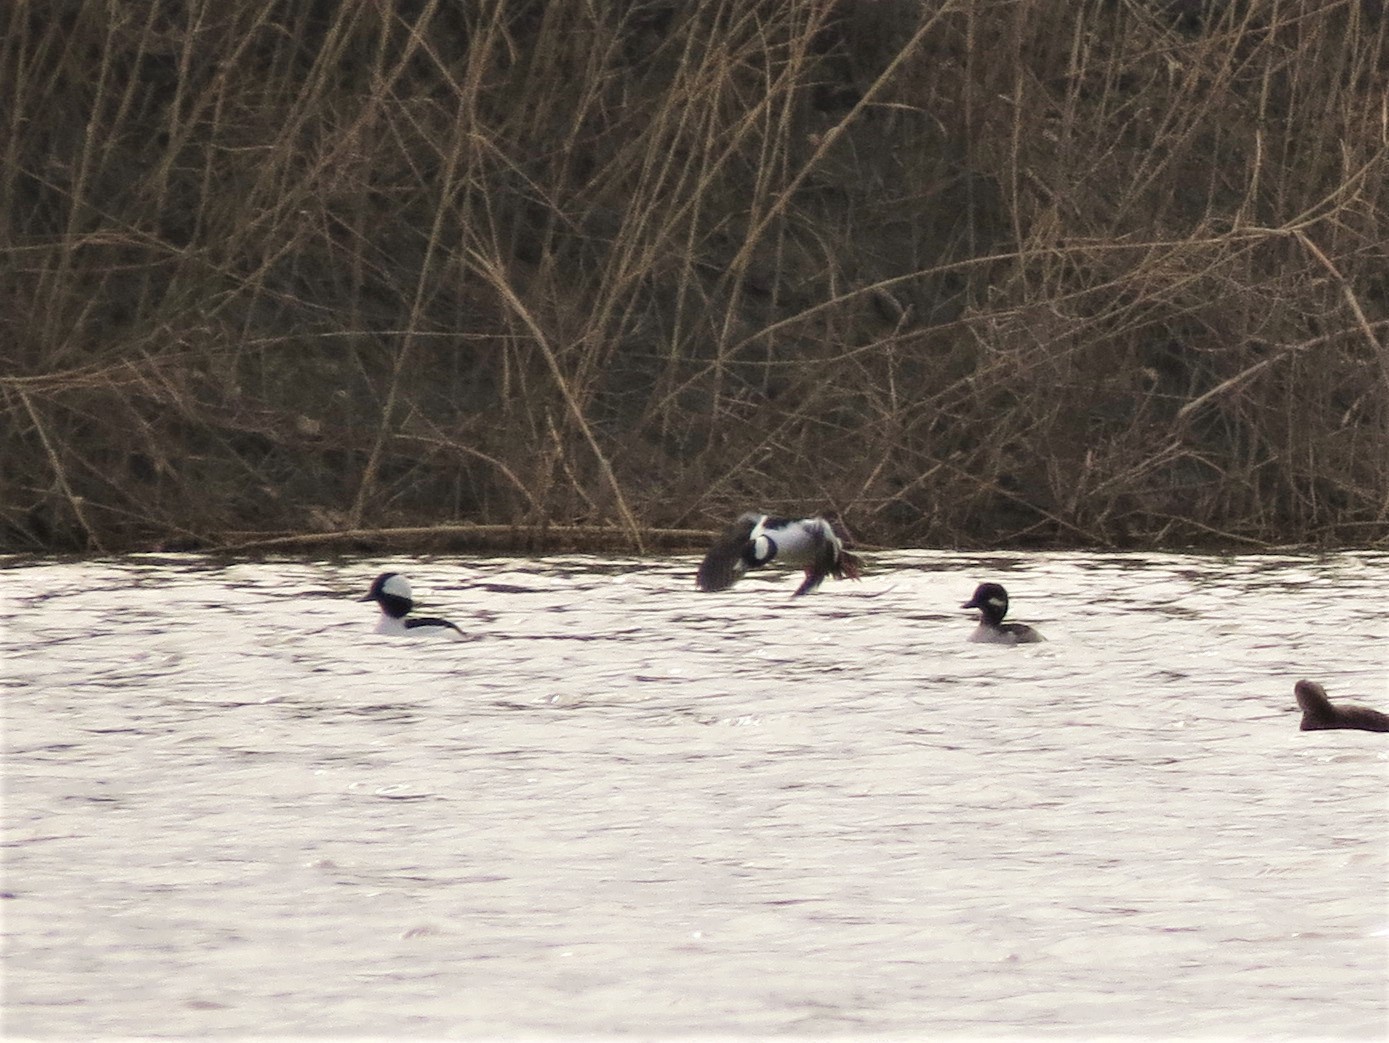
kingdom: Animalia
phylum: Chordata
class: Aves
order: Anseriformes
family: Anatidae
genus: Bucephala
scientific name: Bucephala albeola
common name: Bufflehead
